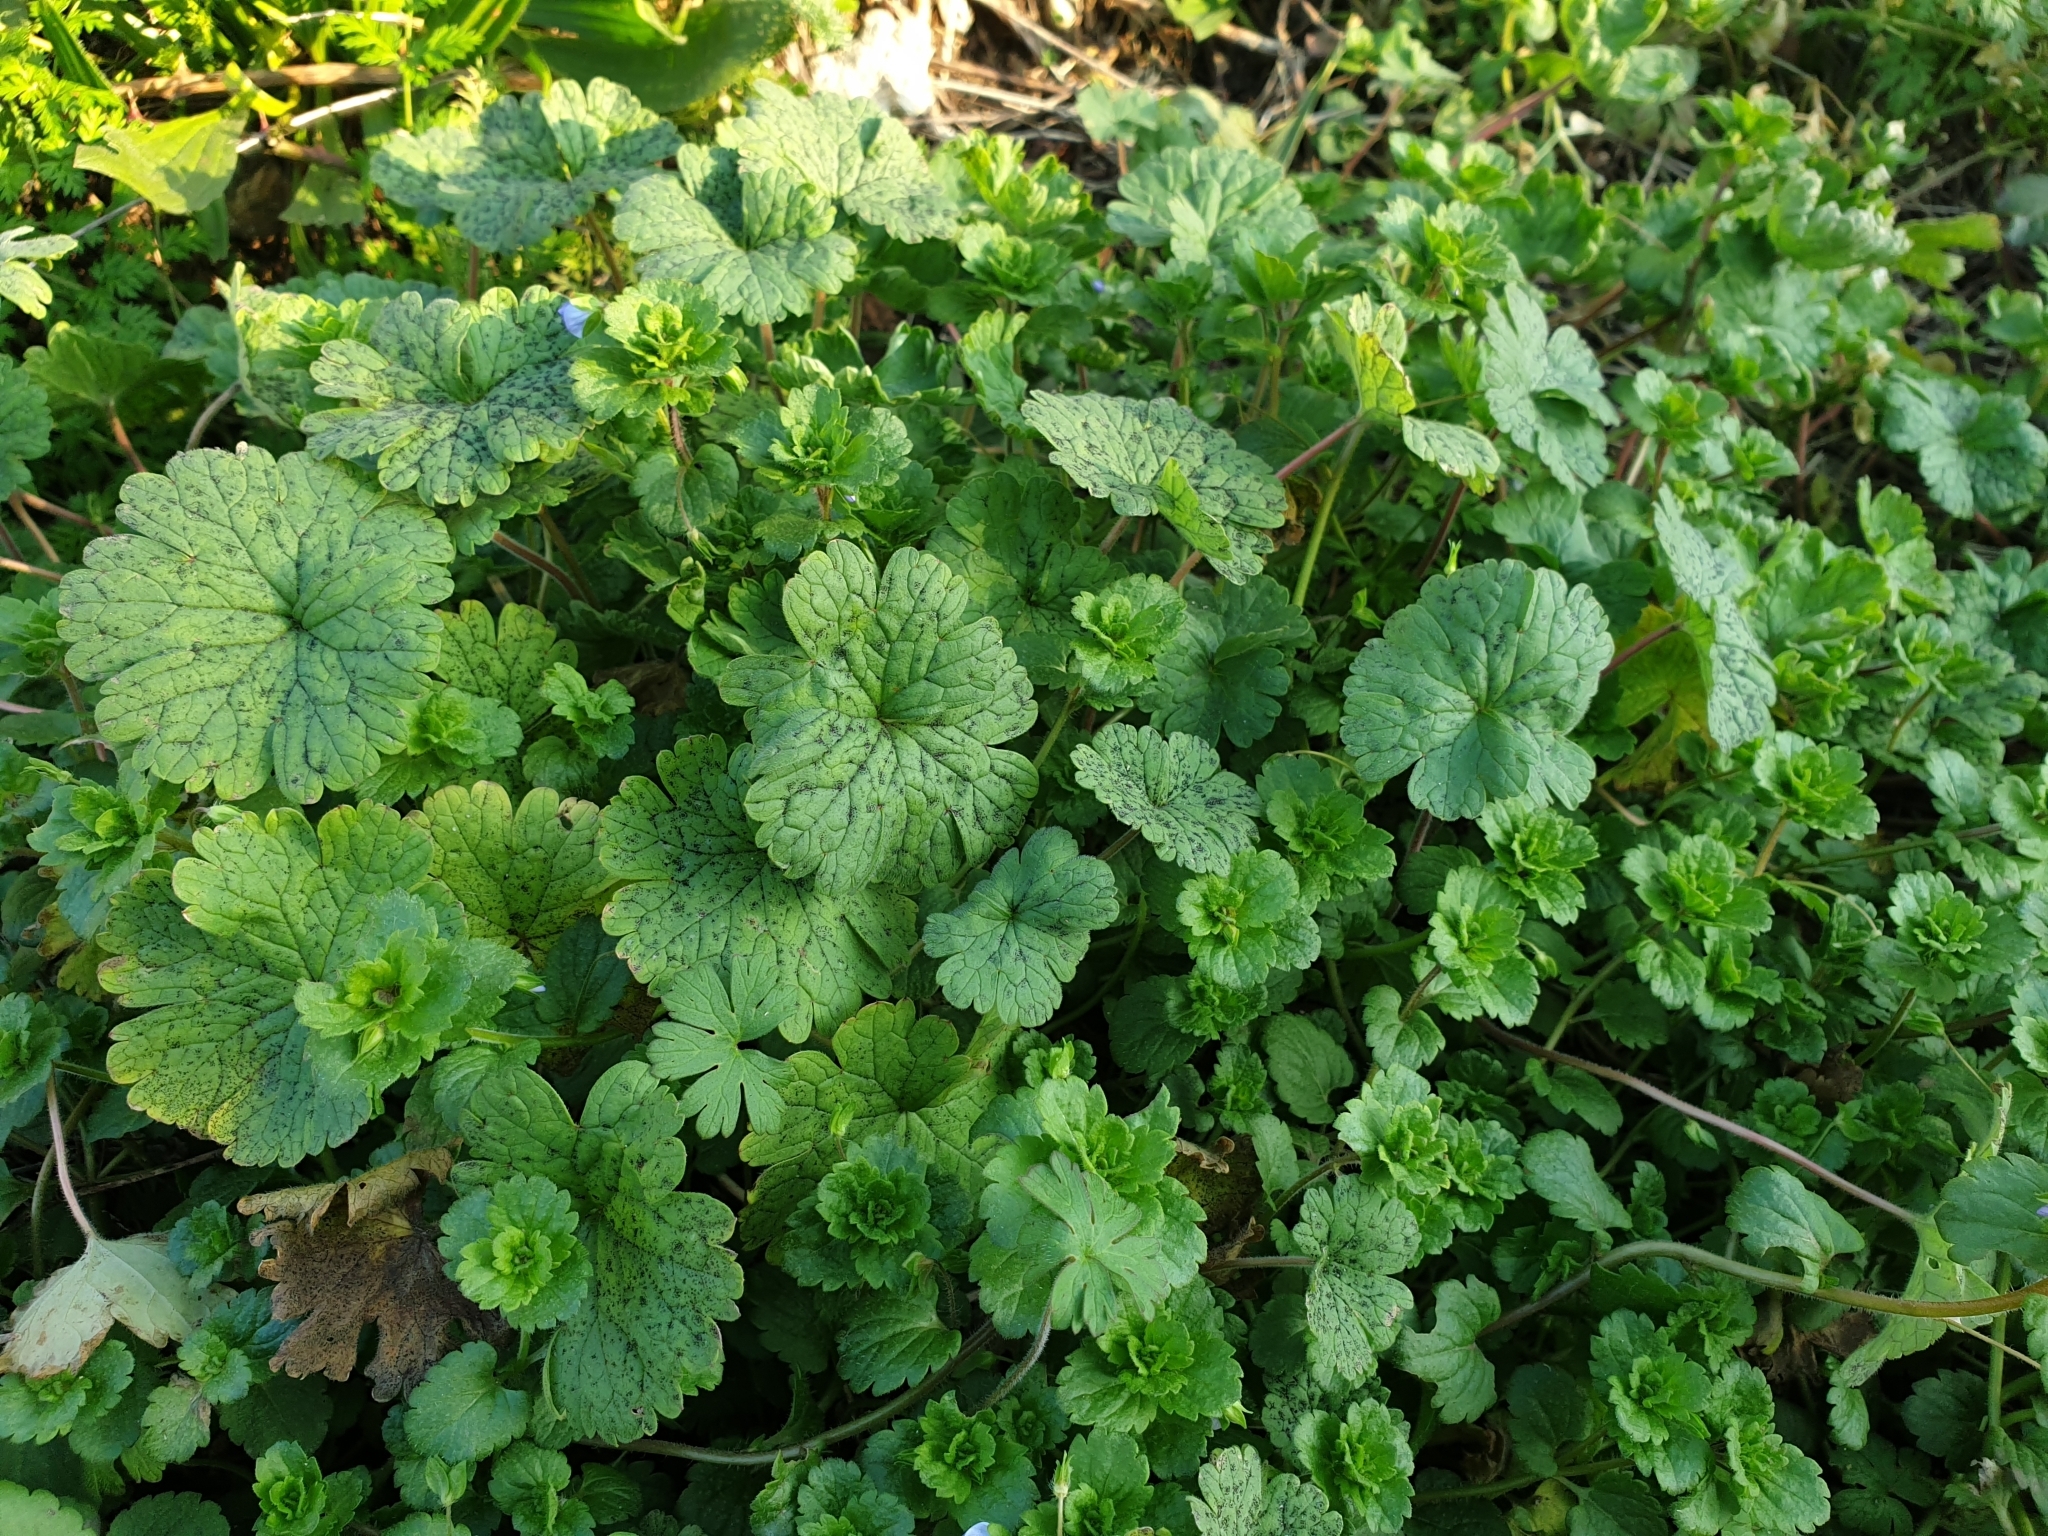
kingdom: Plantae
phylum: Tracheophyta
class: Magnoliopsida
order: Geraniales
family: Geraniaceae
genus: Geranium
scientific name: Geranium rotundifolium
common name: Round-leaved crane's-bill
